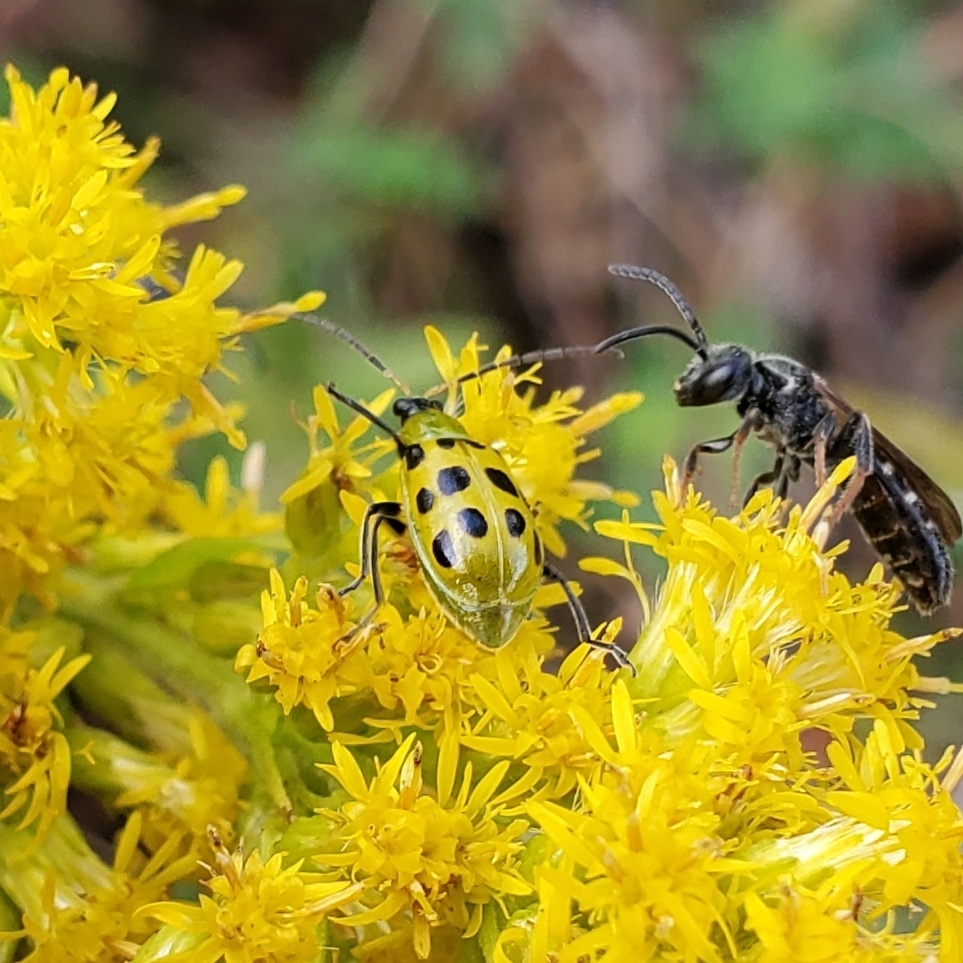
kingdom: Animalia
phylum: Arthropoda
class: Insecta
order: Coleoptera
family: Chrysomelidae
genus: Diabrotica
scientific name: Diabrotica undecimpunctata
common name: Spotted cucumber beetle
